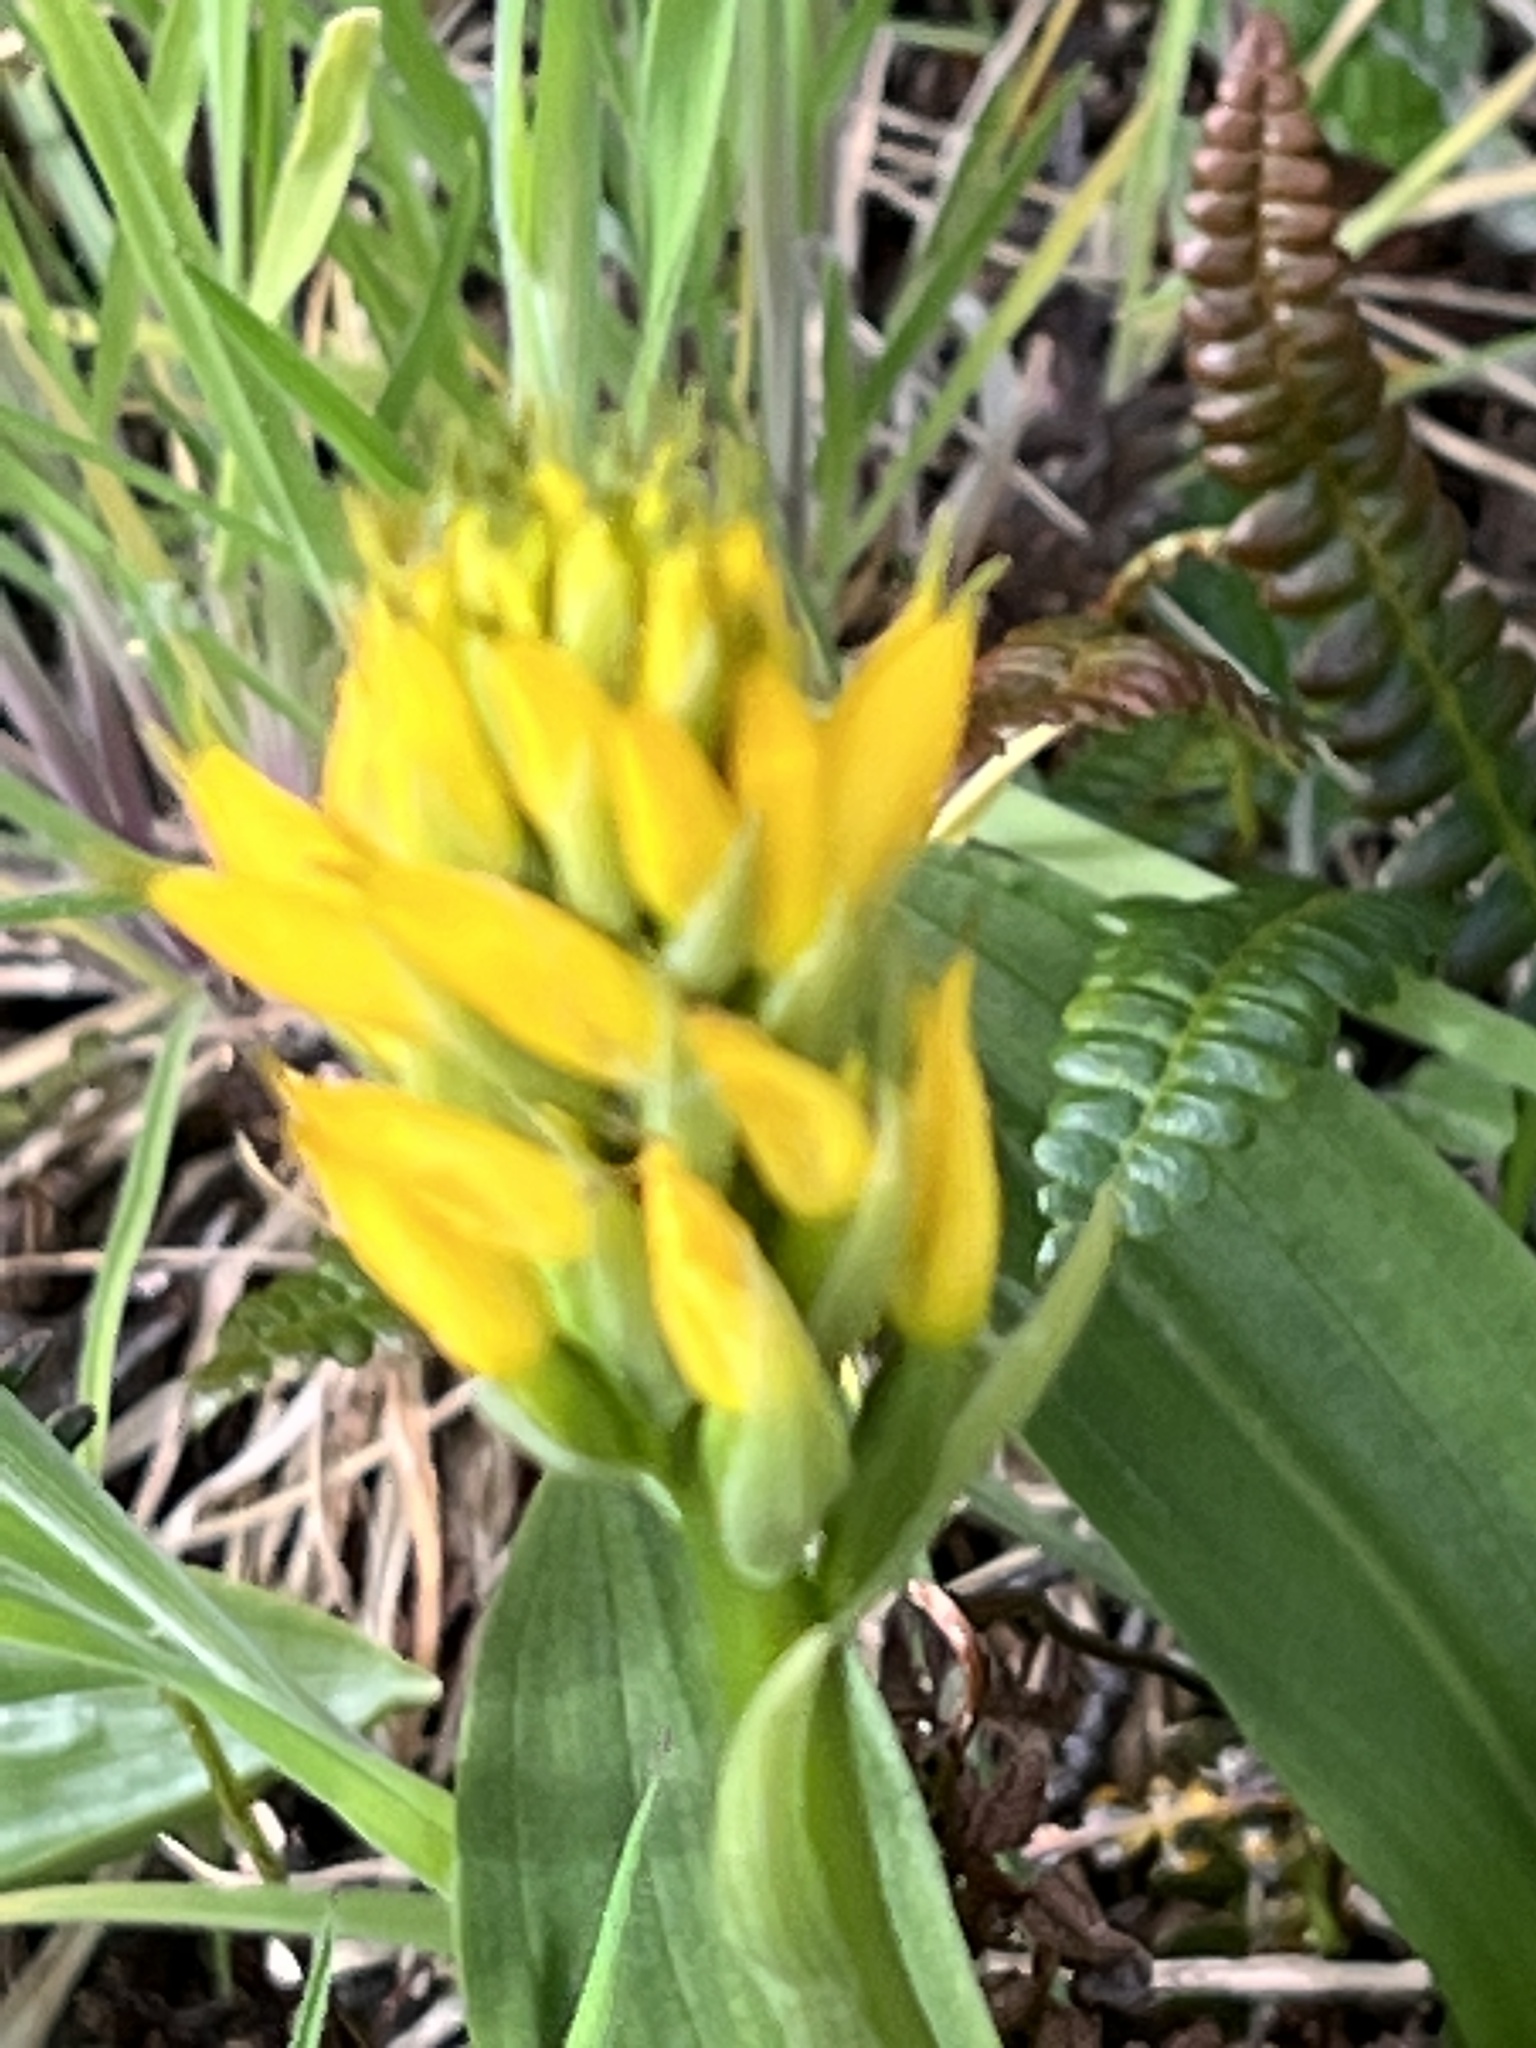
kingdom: Plantae
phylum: Tracheophyta
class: Liliopsida
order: Asparagales
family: Orchidaceae
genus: Gavilea
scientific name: Gavilea lutea
